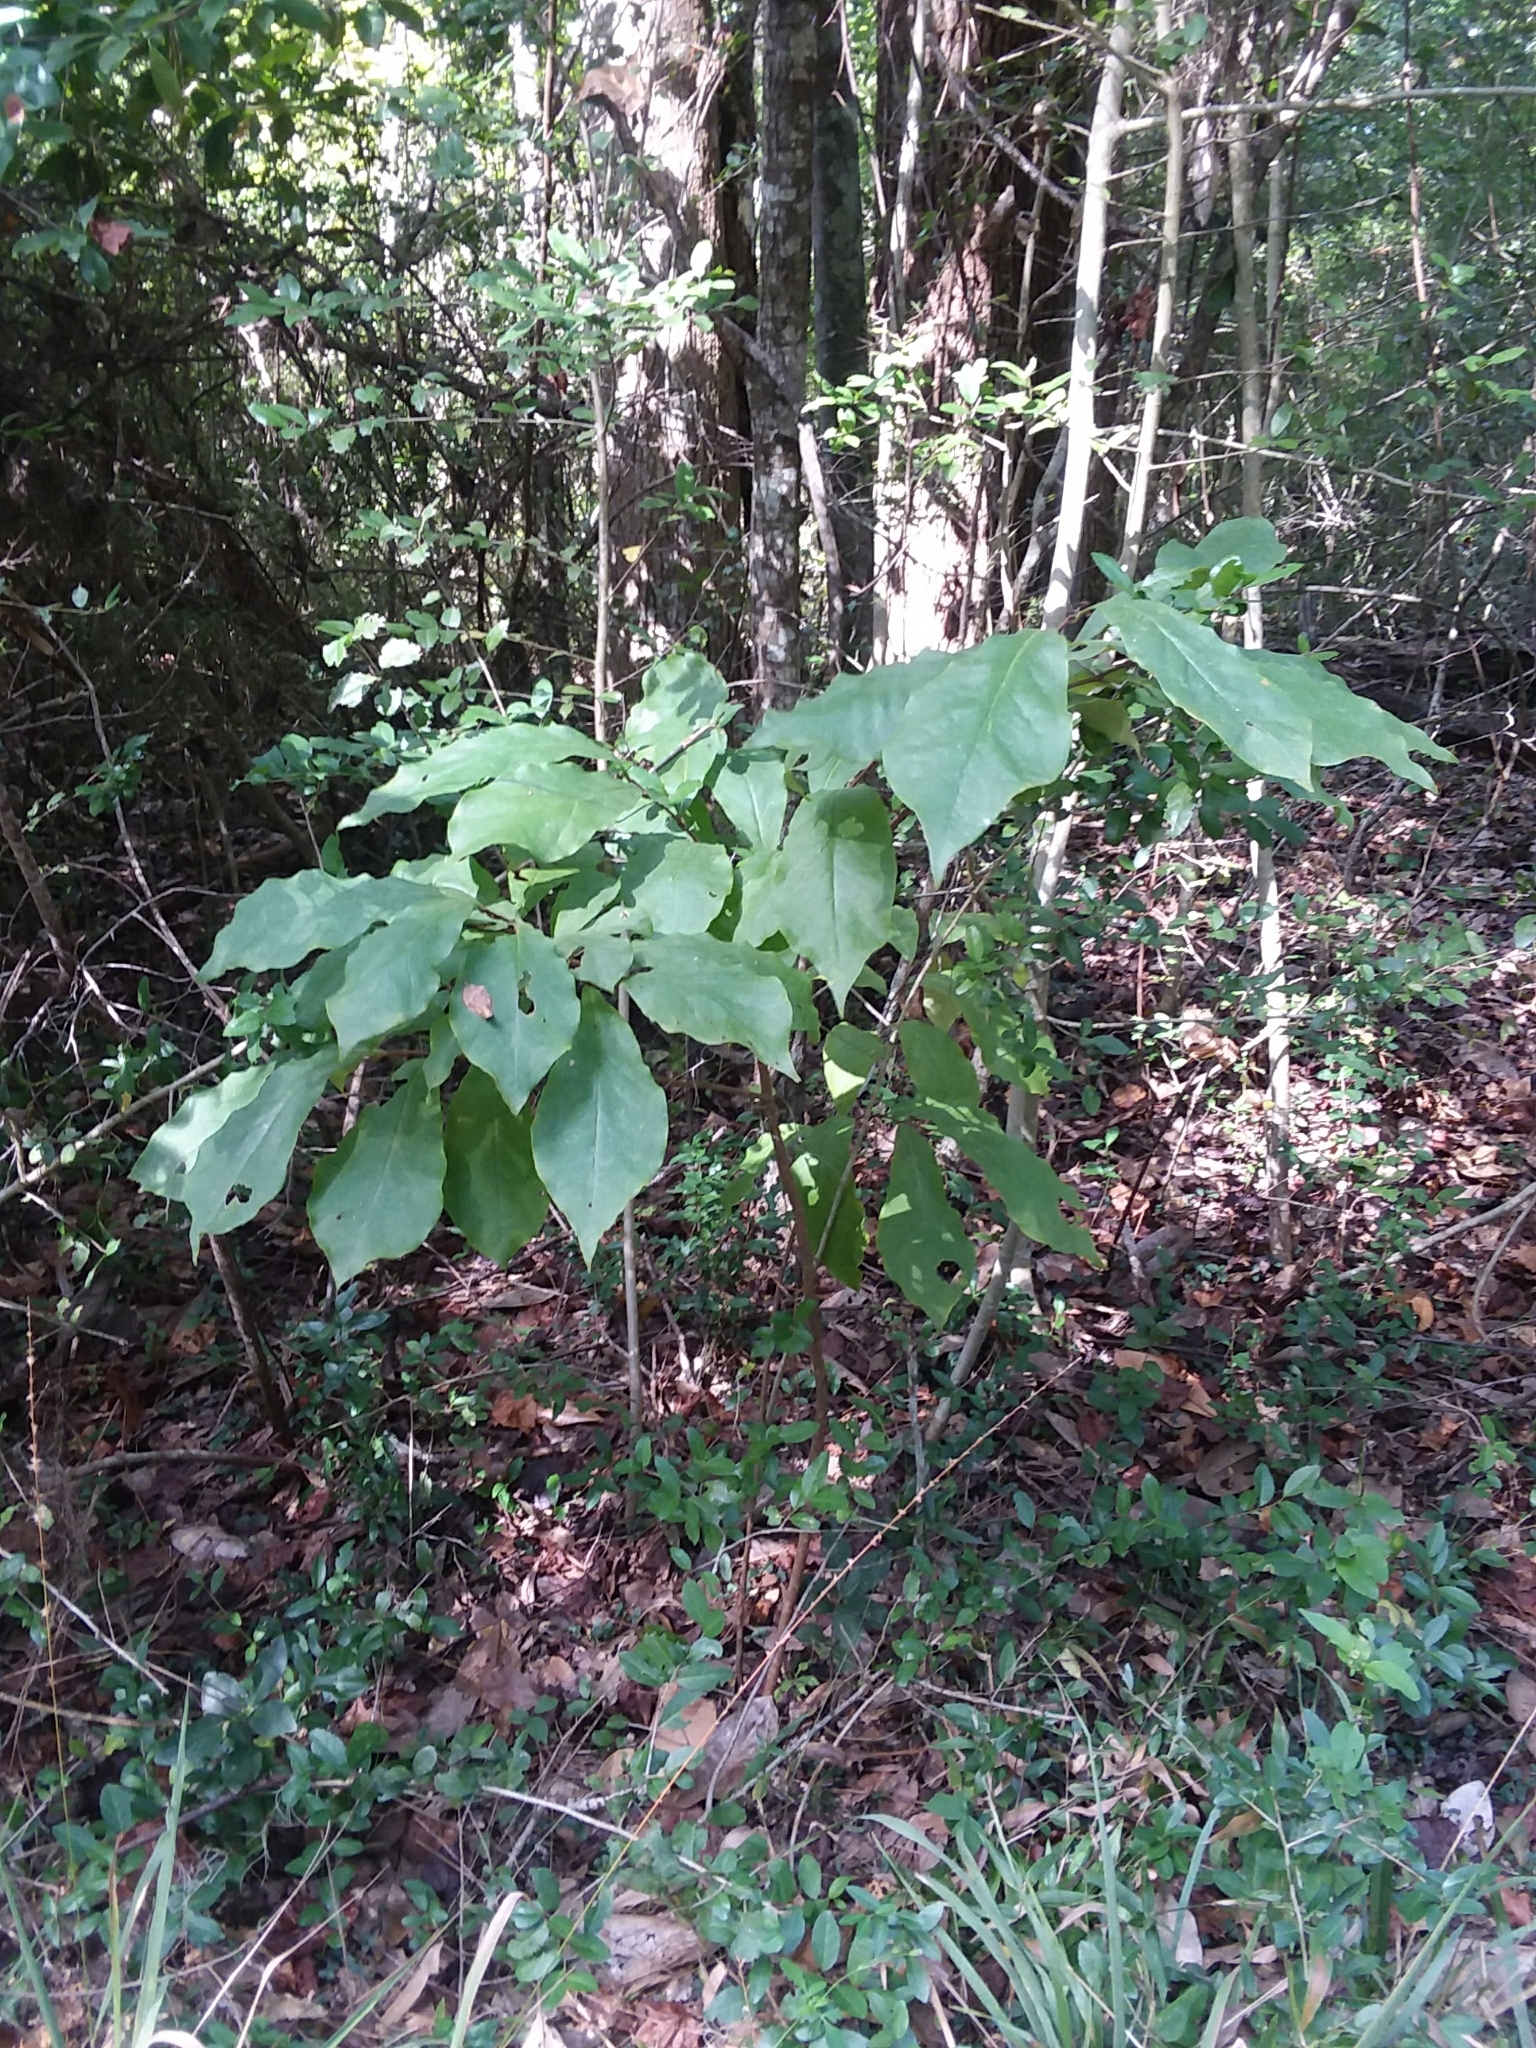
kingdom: Plantae
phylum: Tracheophyta
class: Magnoliopsida
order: Magnoliales
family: Annonaceae
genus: Asimina
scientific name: Asimina parviflora
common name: Dwarf pawpaw
